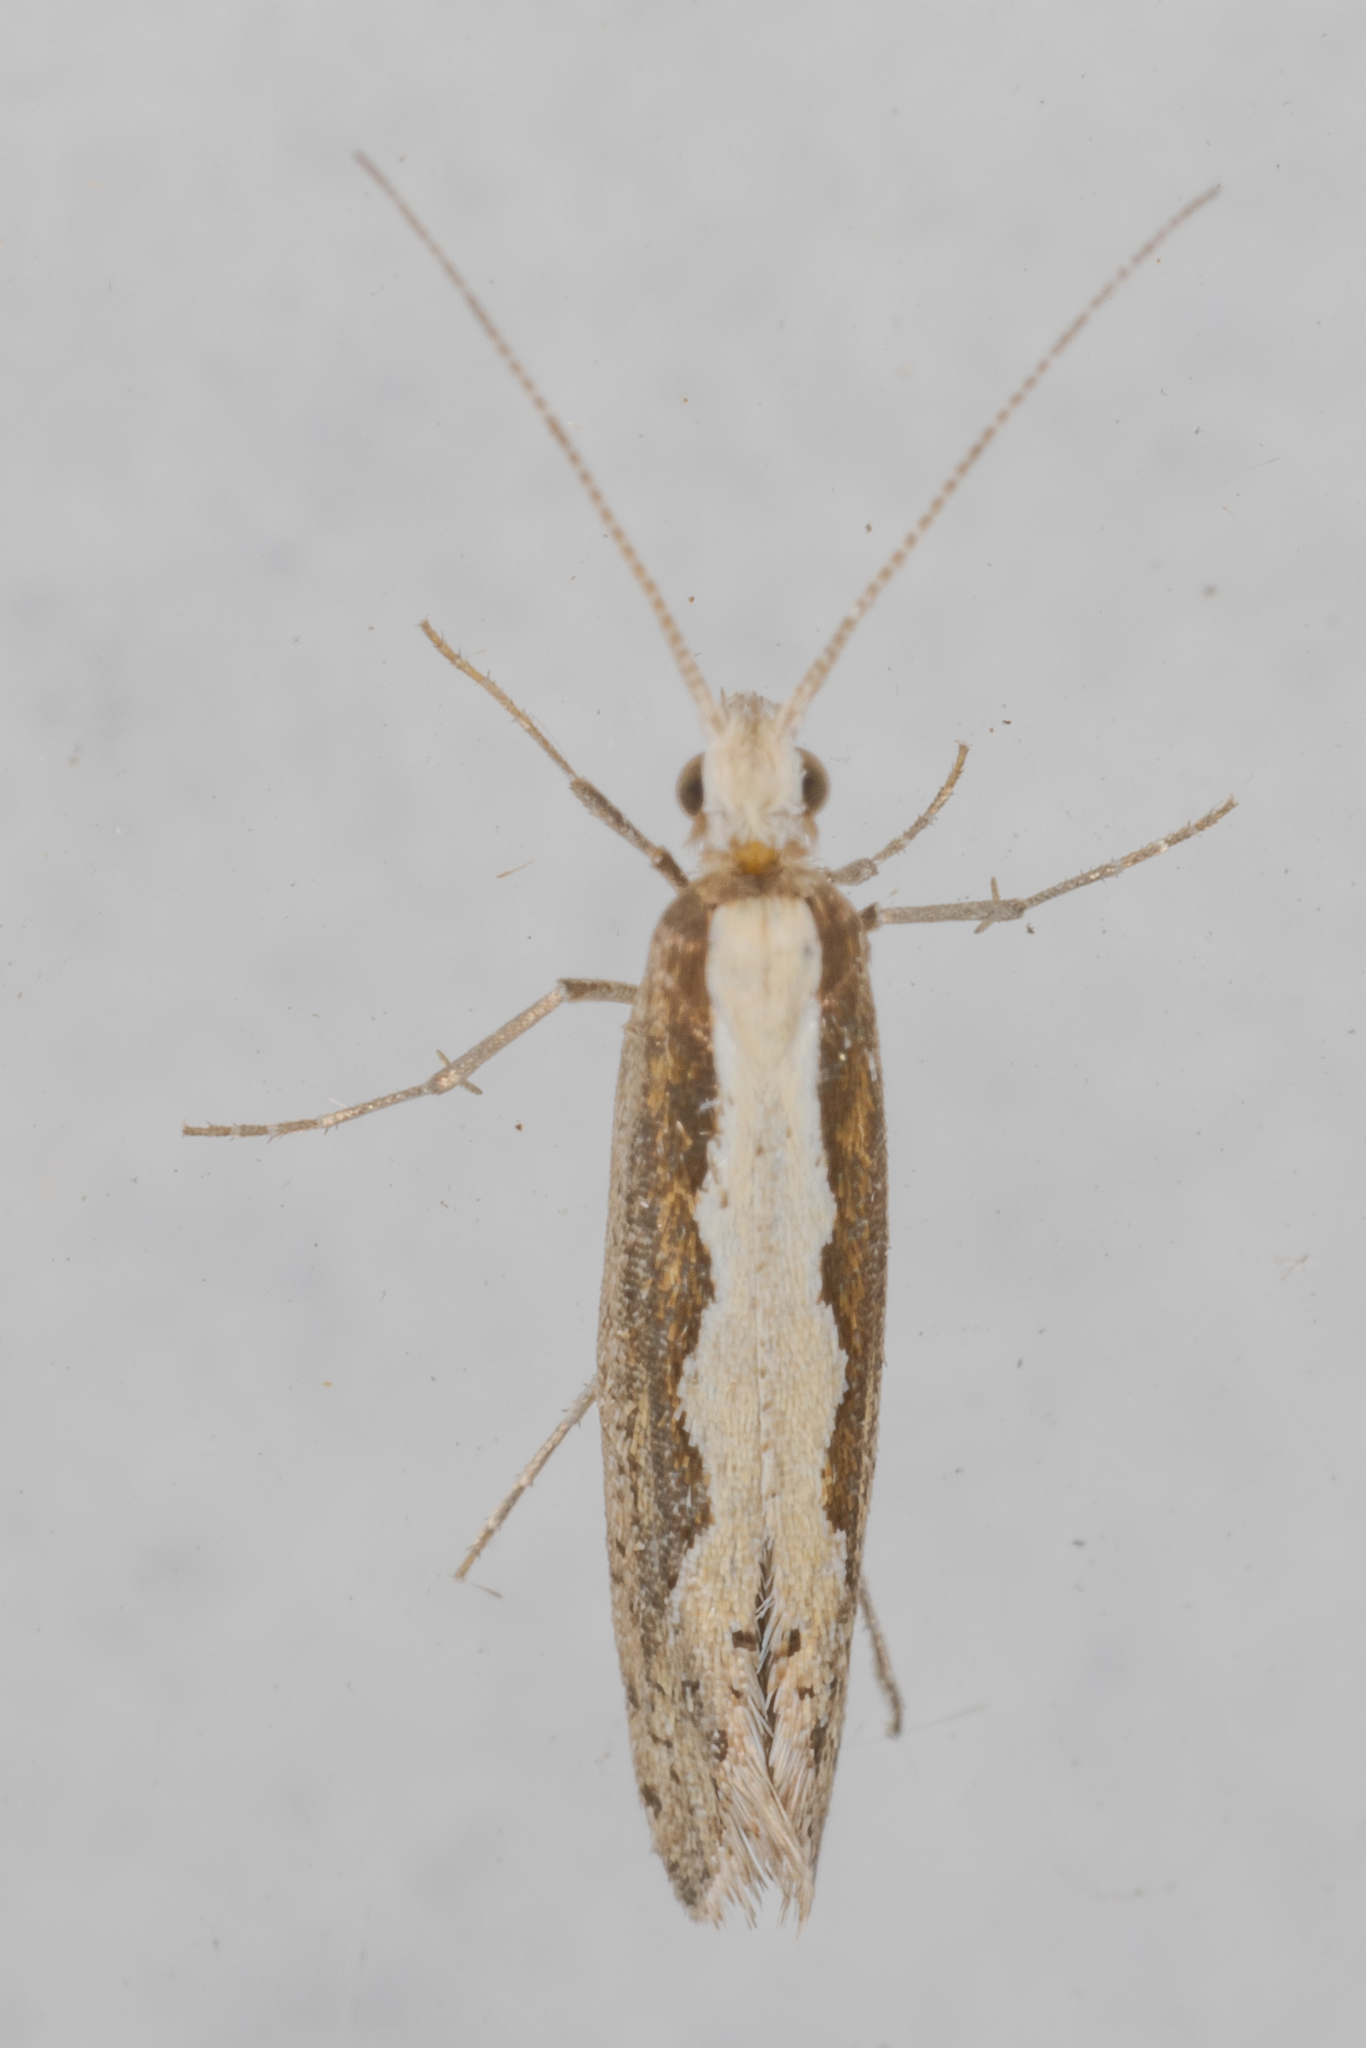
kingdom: Animalia
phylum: Arthropoda
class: Insecta
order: Lepidoptera
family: Plutellidae
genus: Plutella
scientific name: Plutella xylostella
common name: Diamond-back moth
